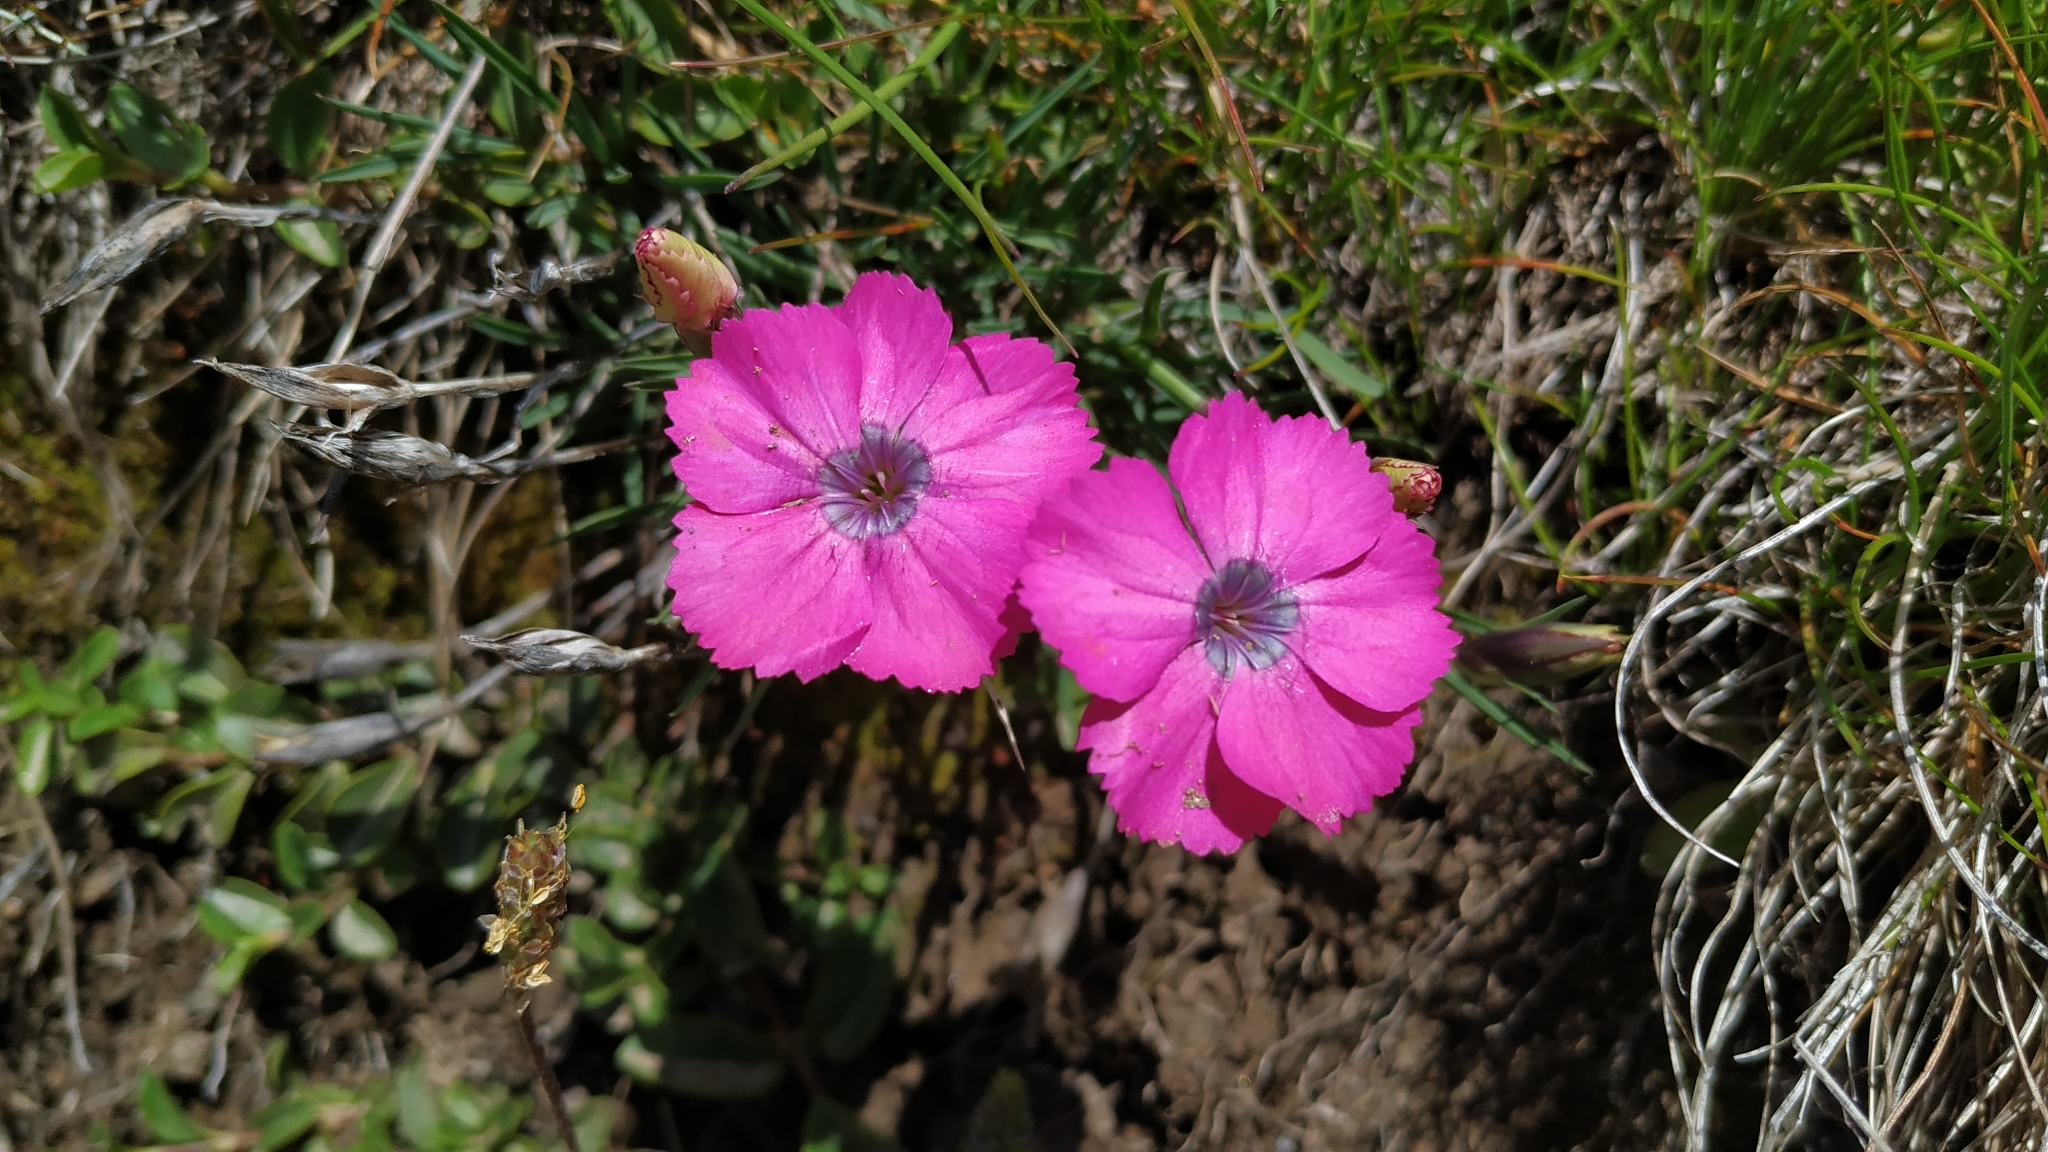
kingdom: Plantae
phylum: Tracheophyta
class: Magnoliopsida
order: Caryophyllales
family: Caryophyllaceae
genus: Dianthus
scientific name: Dianthus pavonius
